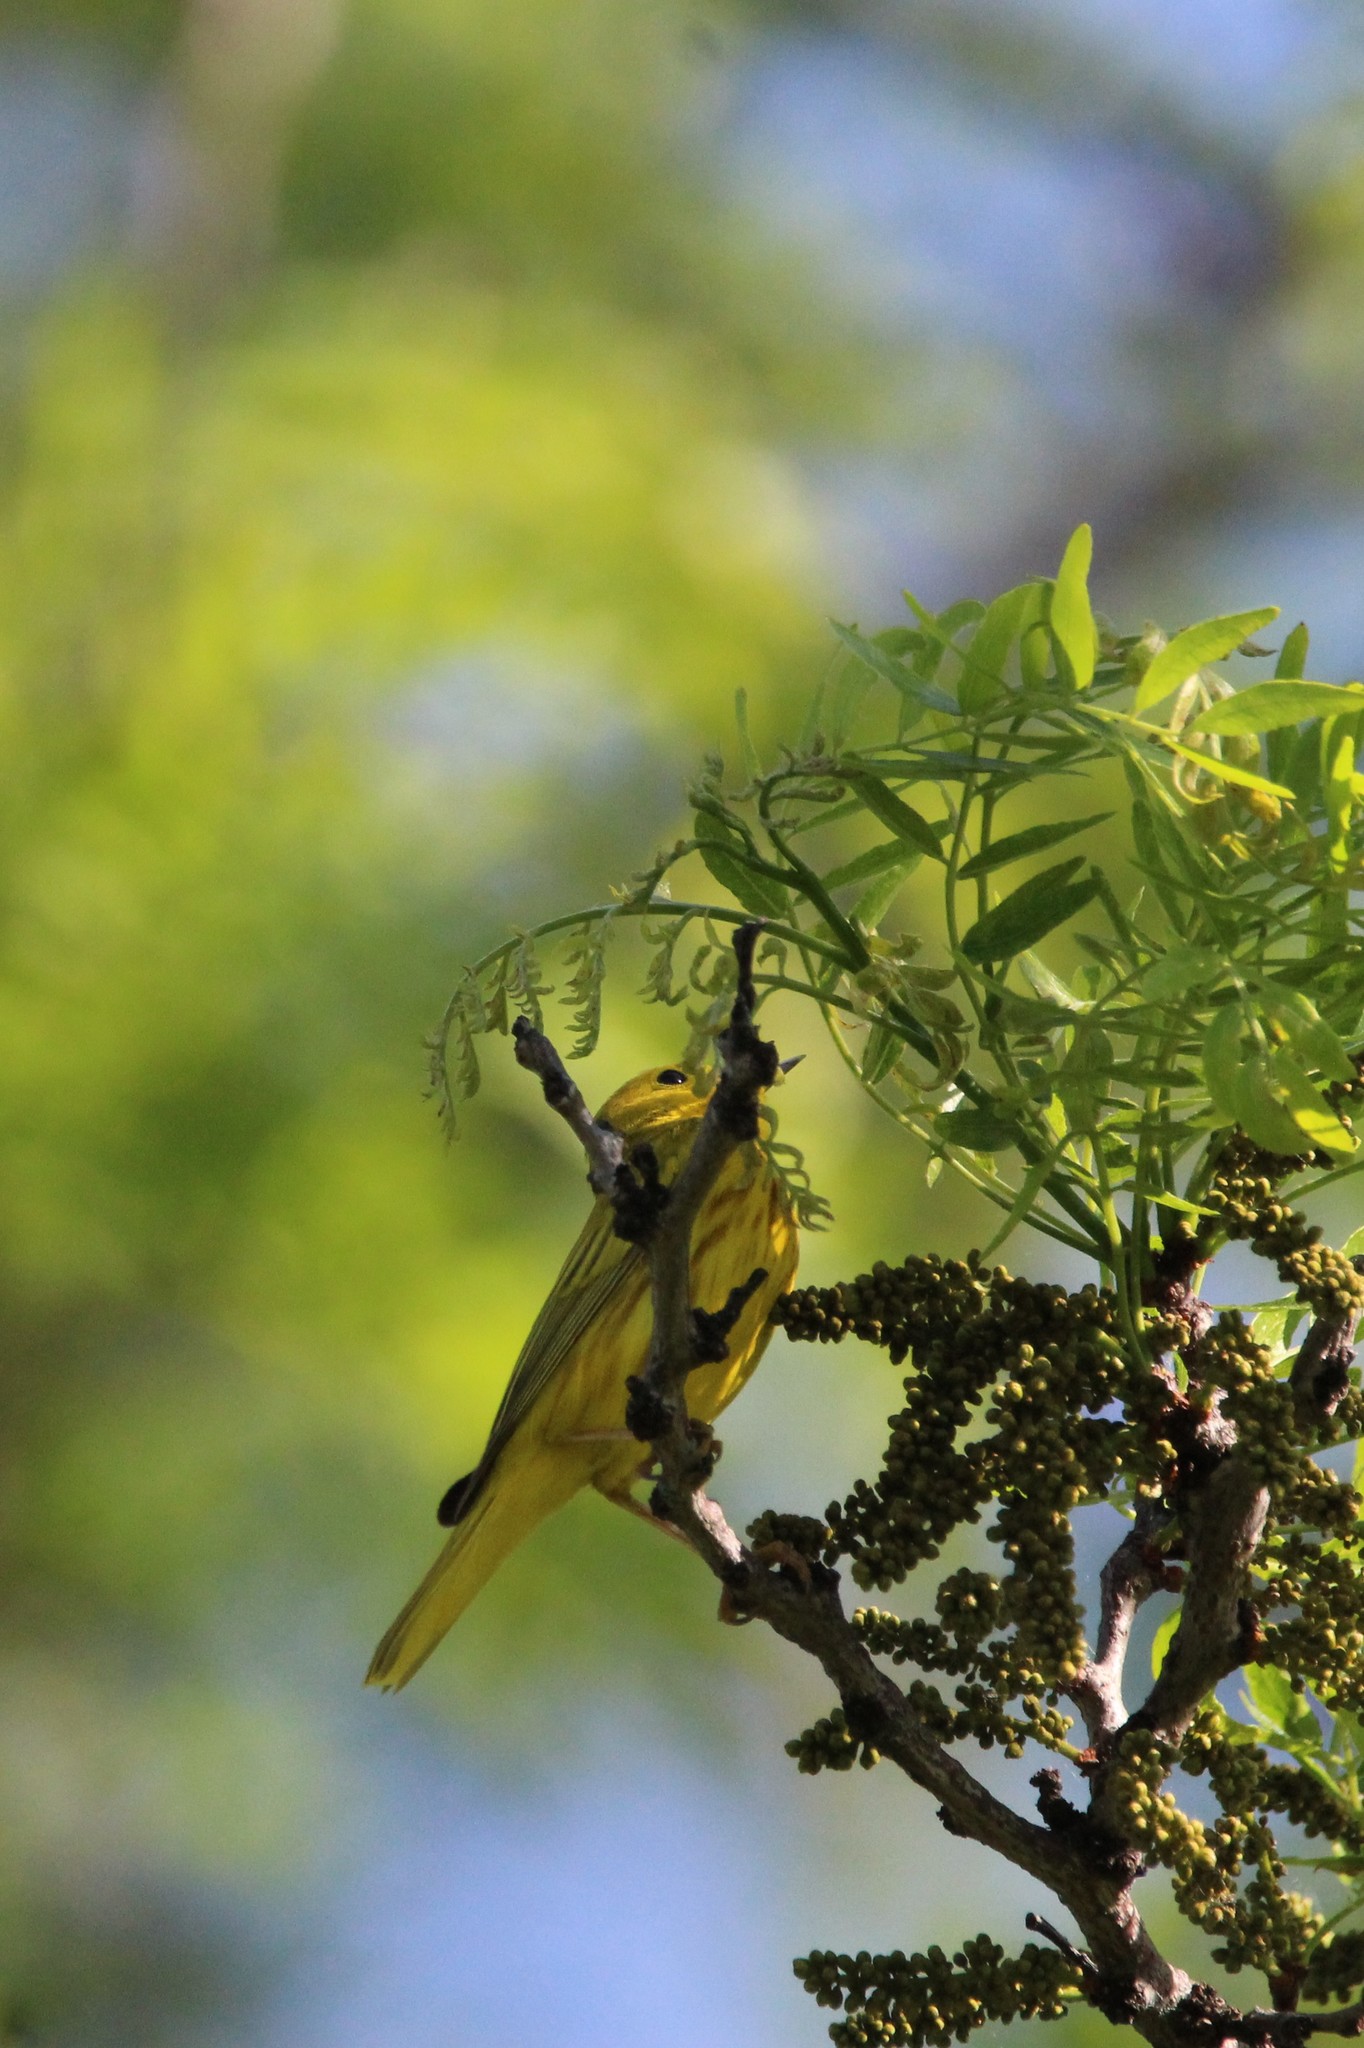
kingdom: Animalia
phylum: Chordata
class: Aves
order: Passeriformes
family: Parulidae
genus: Setophaga
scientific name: Setophaga petechia
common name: Yellow warbler
